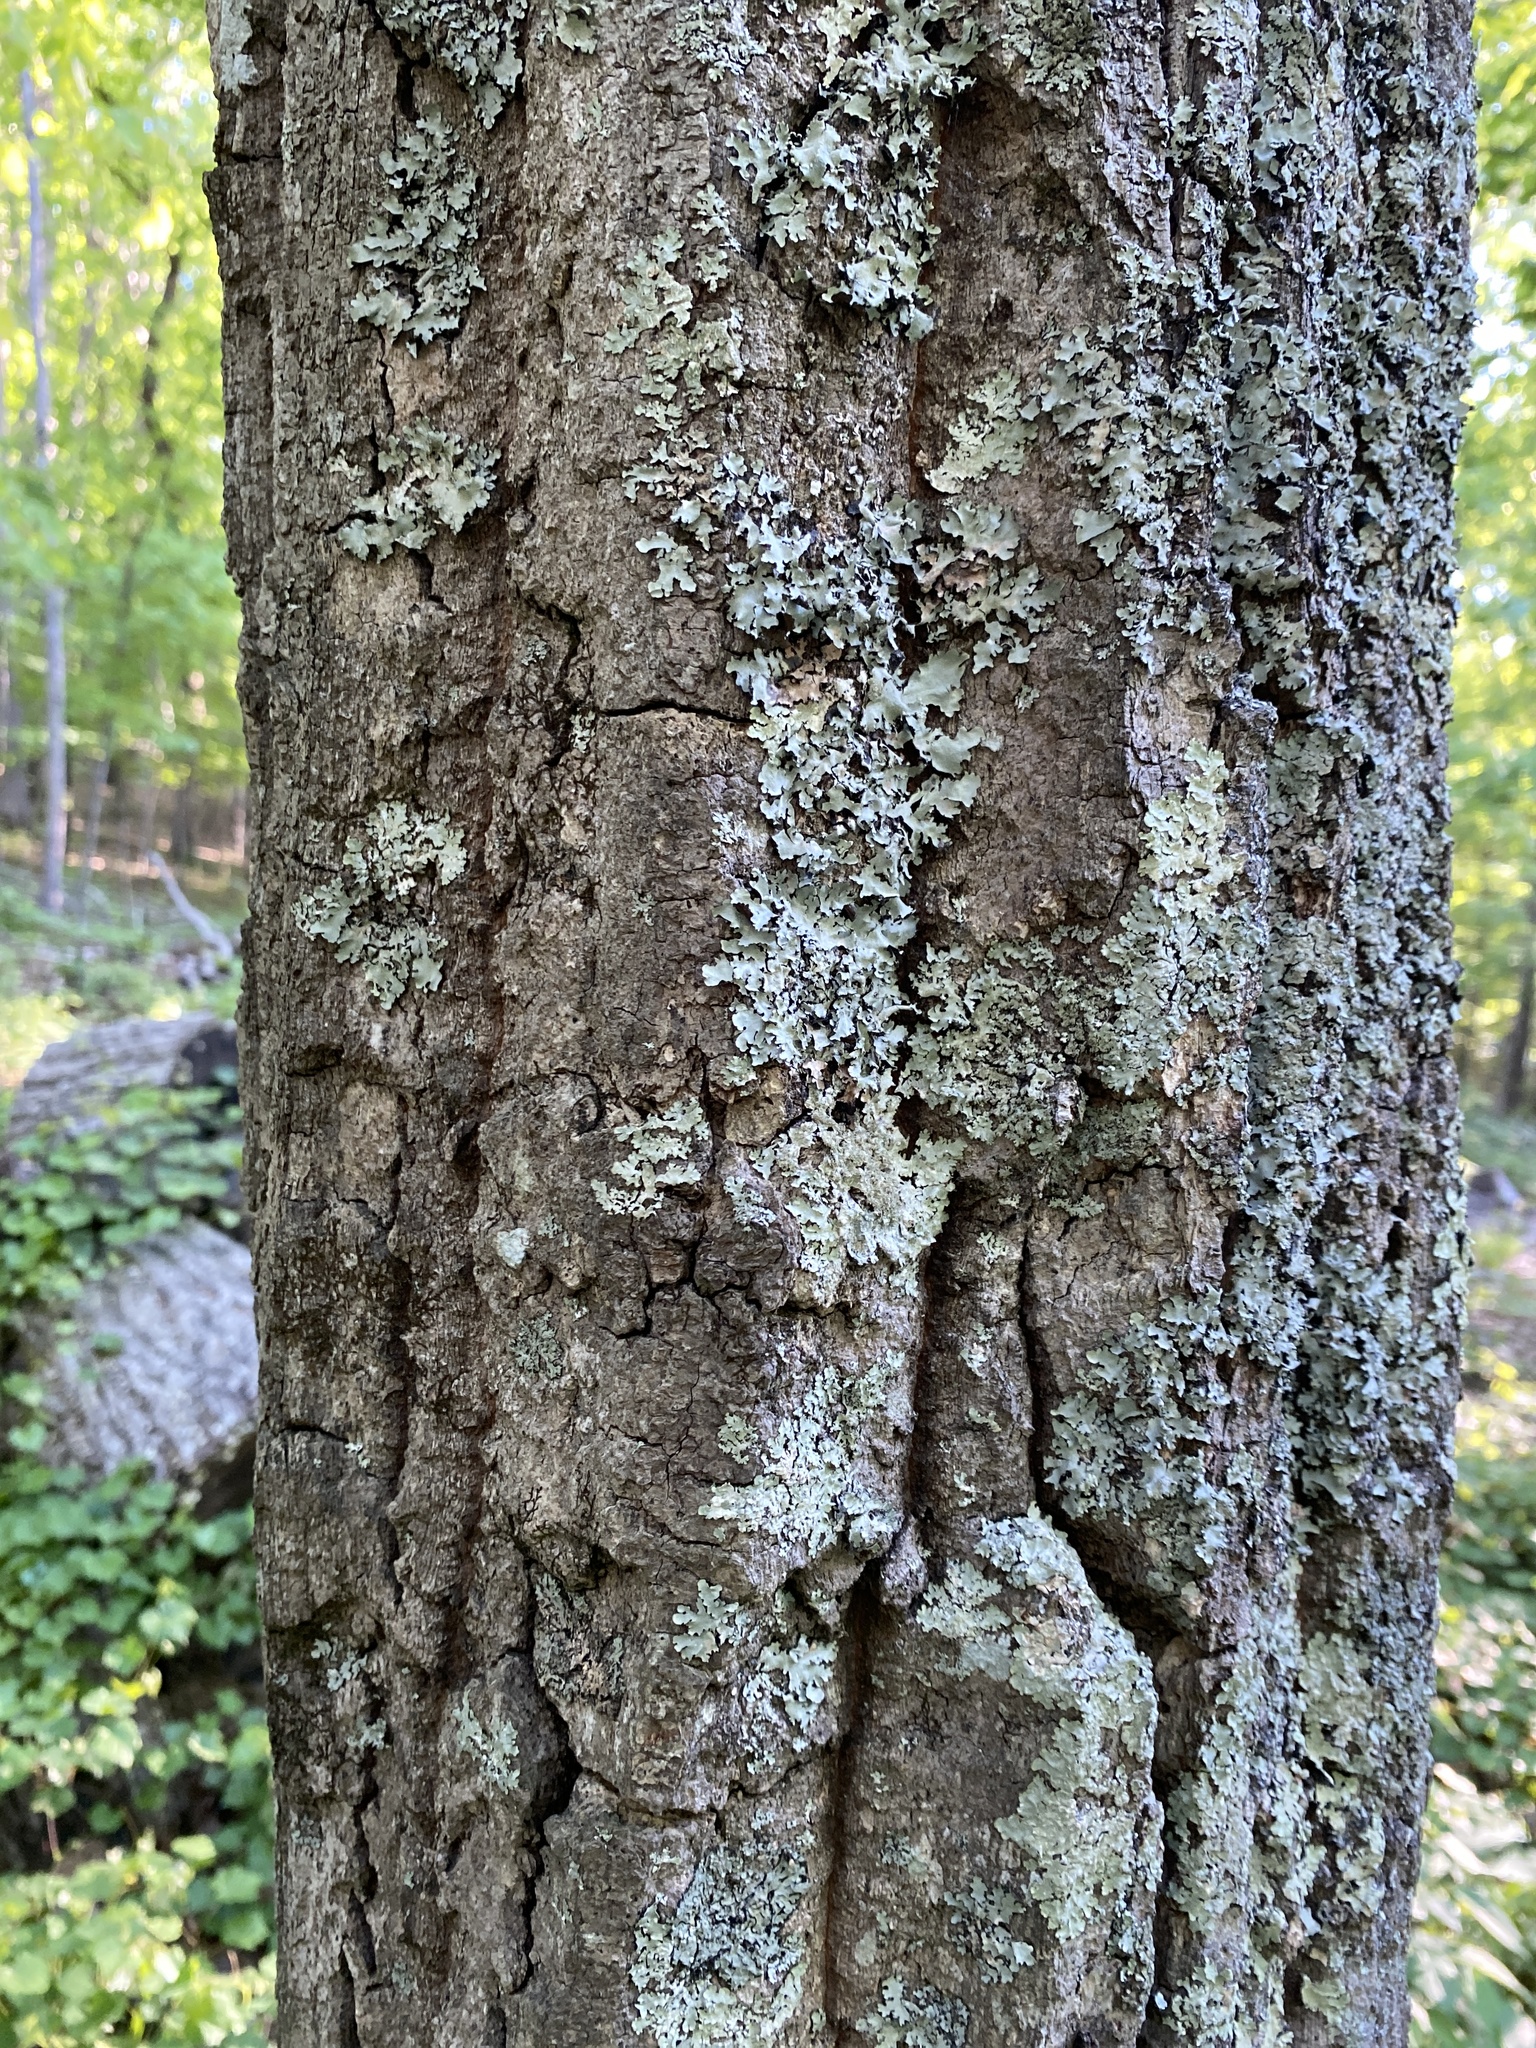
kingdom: Plantae
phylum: Tracheophyta
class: Magnoliopsida
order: Fagales
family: Fagaceae
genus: Quercus
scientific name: Quercus montana
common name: Chestnut oak
